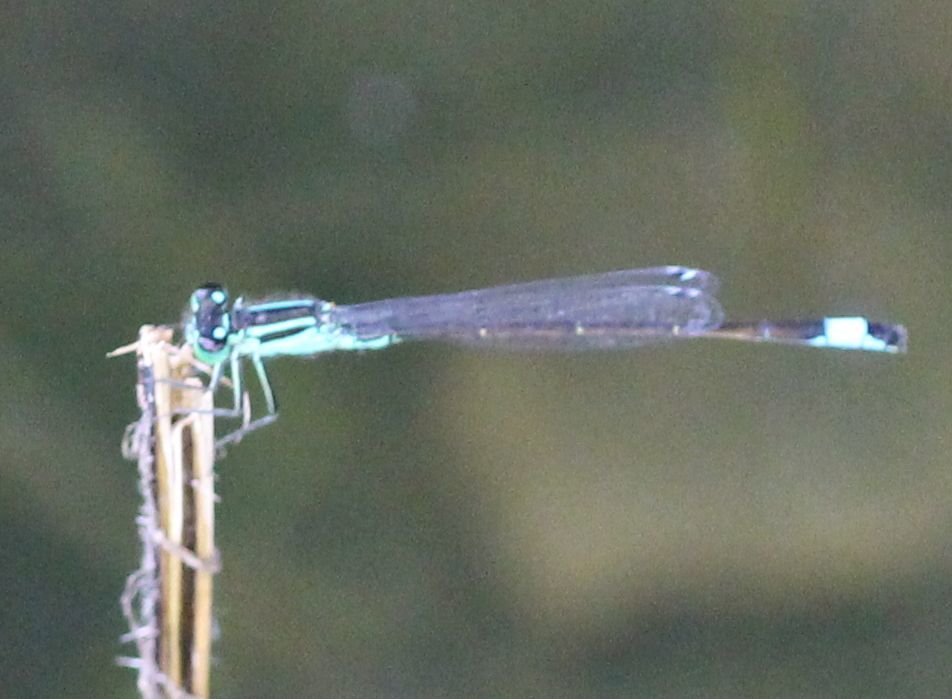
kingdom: Animalia
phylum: Arthropoda
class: Insecta
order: Odonata
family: Coenagrionidae
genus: Ischnura
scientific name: Ischnura elegans
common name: Blue-tailed damselfly
